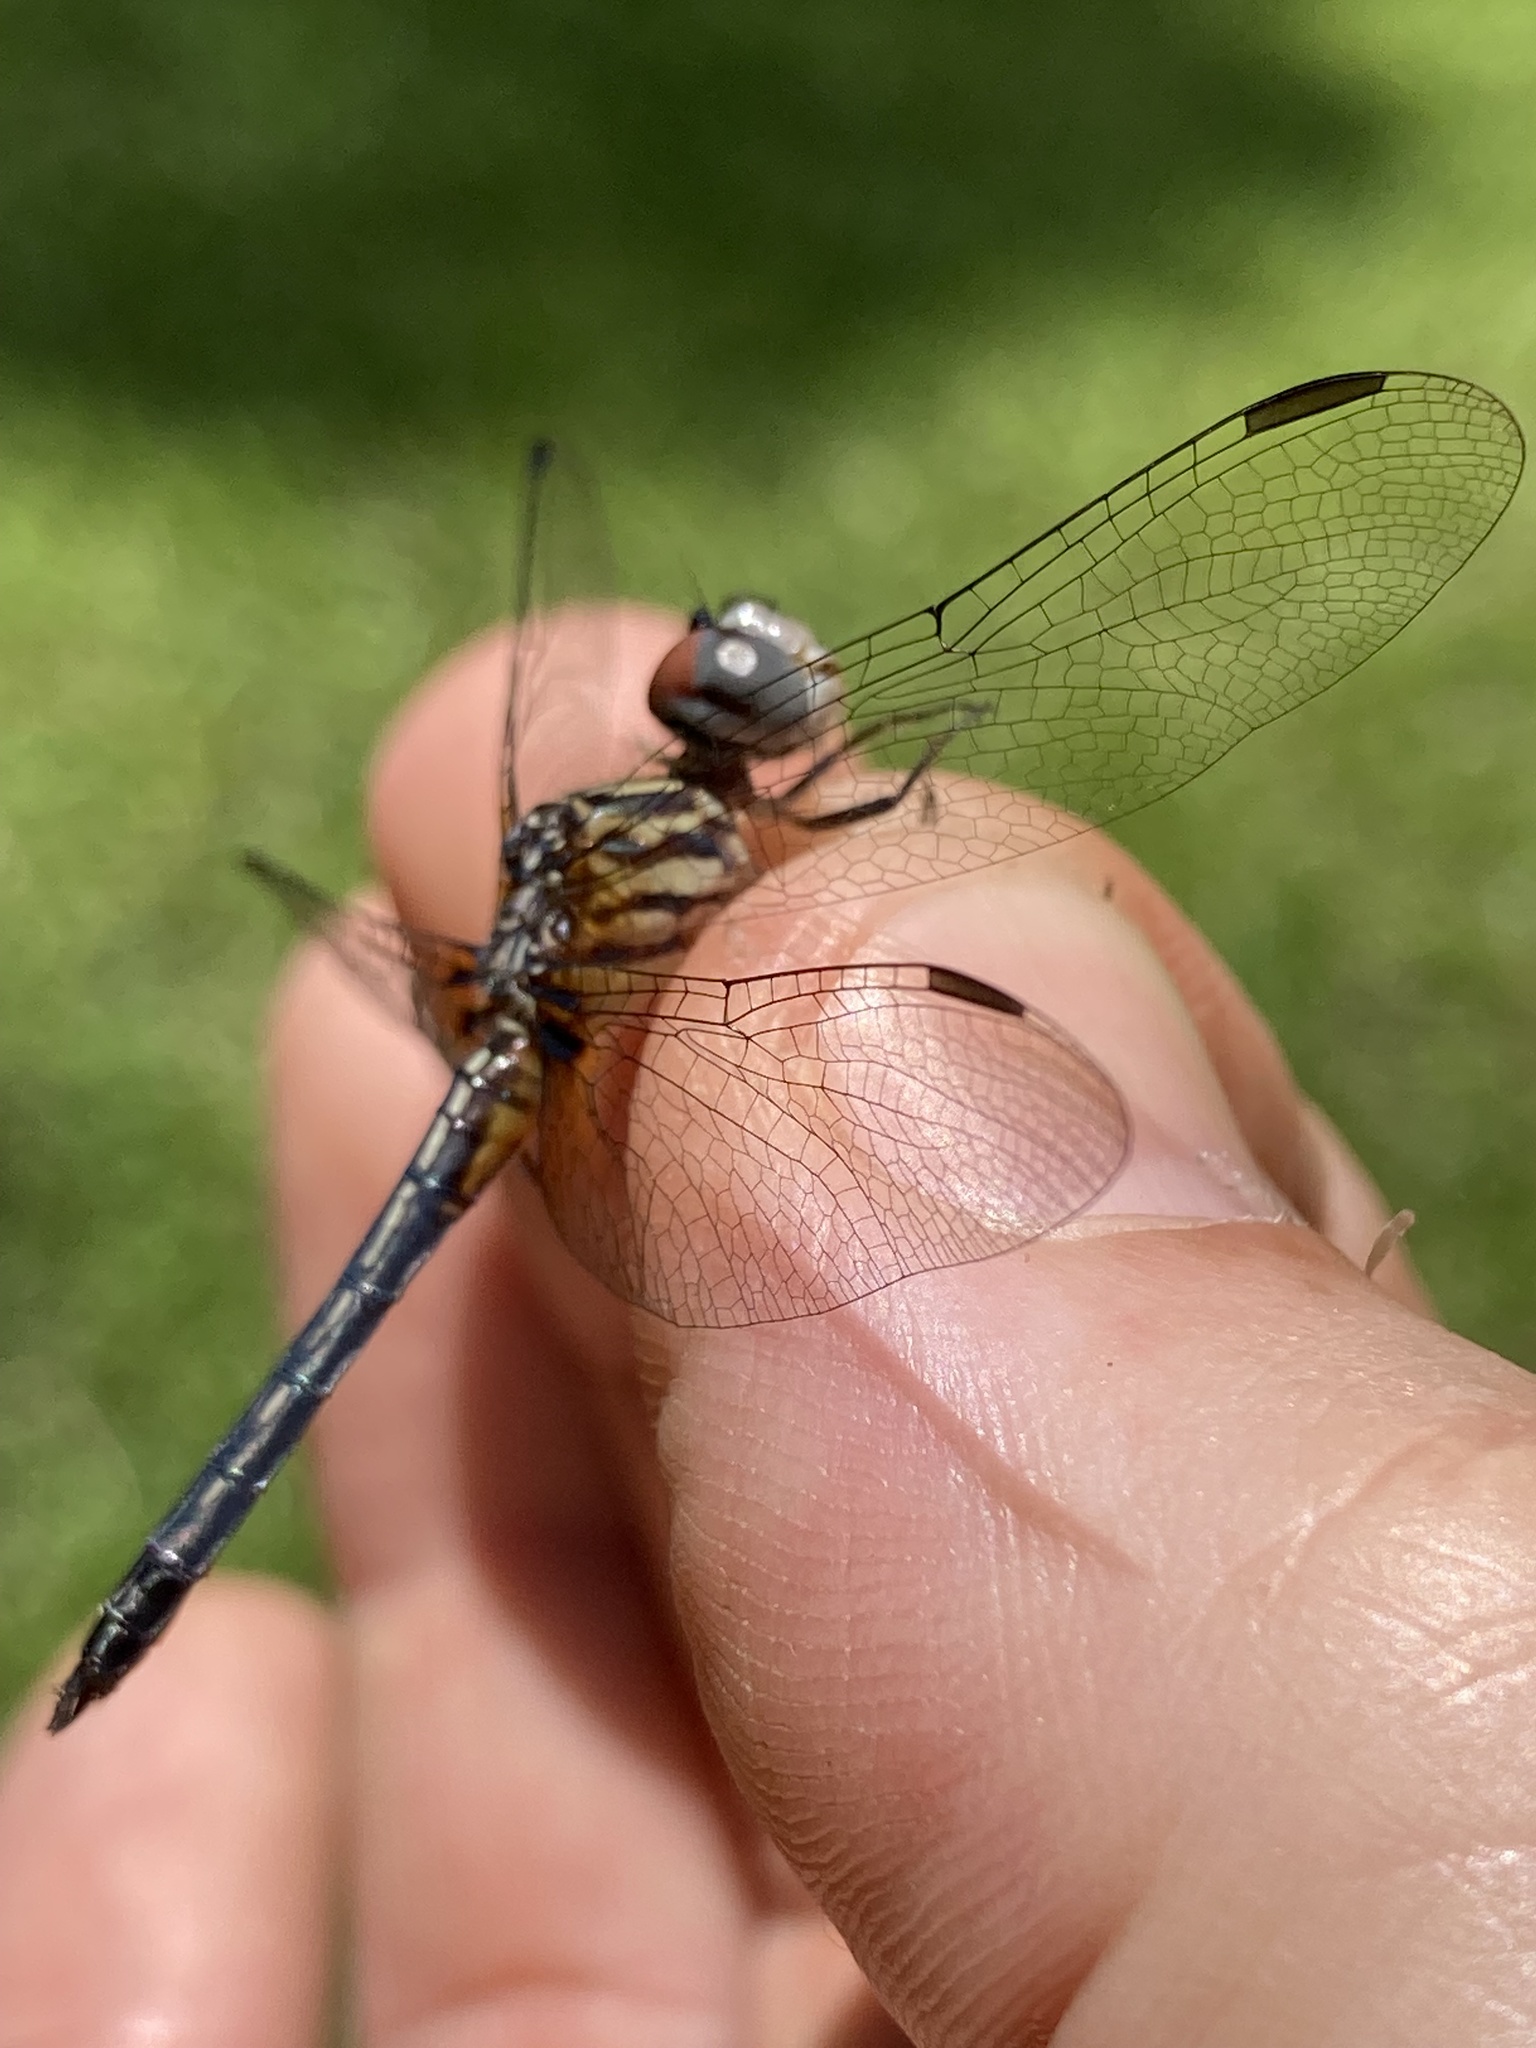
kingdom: Animalia
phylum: Arthropoda
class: Insecta
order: Odonata
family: Libellulidae
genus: Pachydiplax
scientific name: Pachydiplax longipennis
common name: Blue dasher
